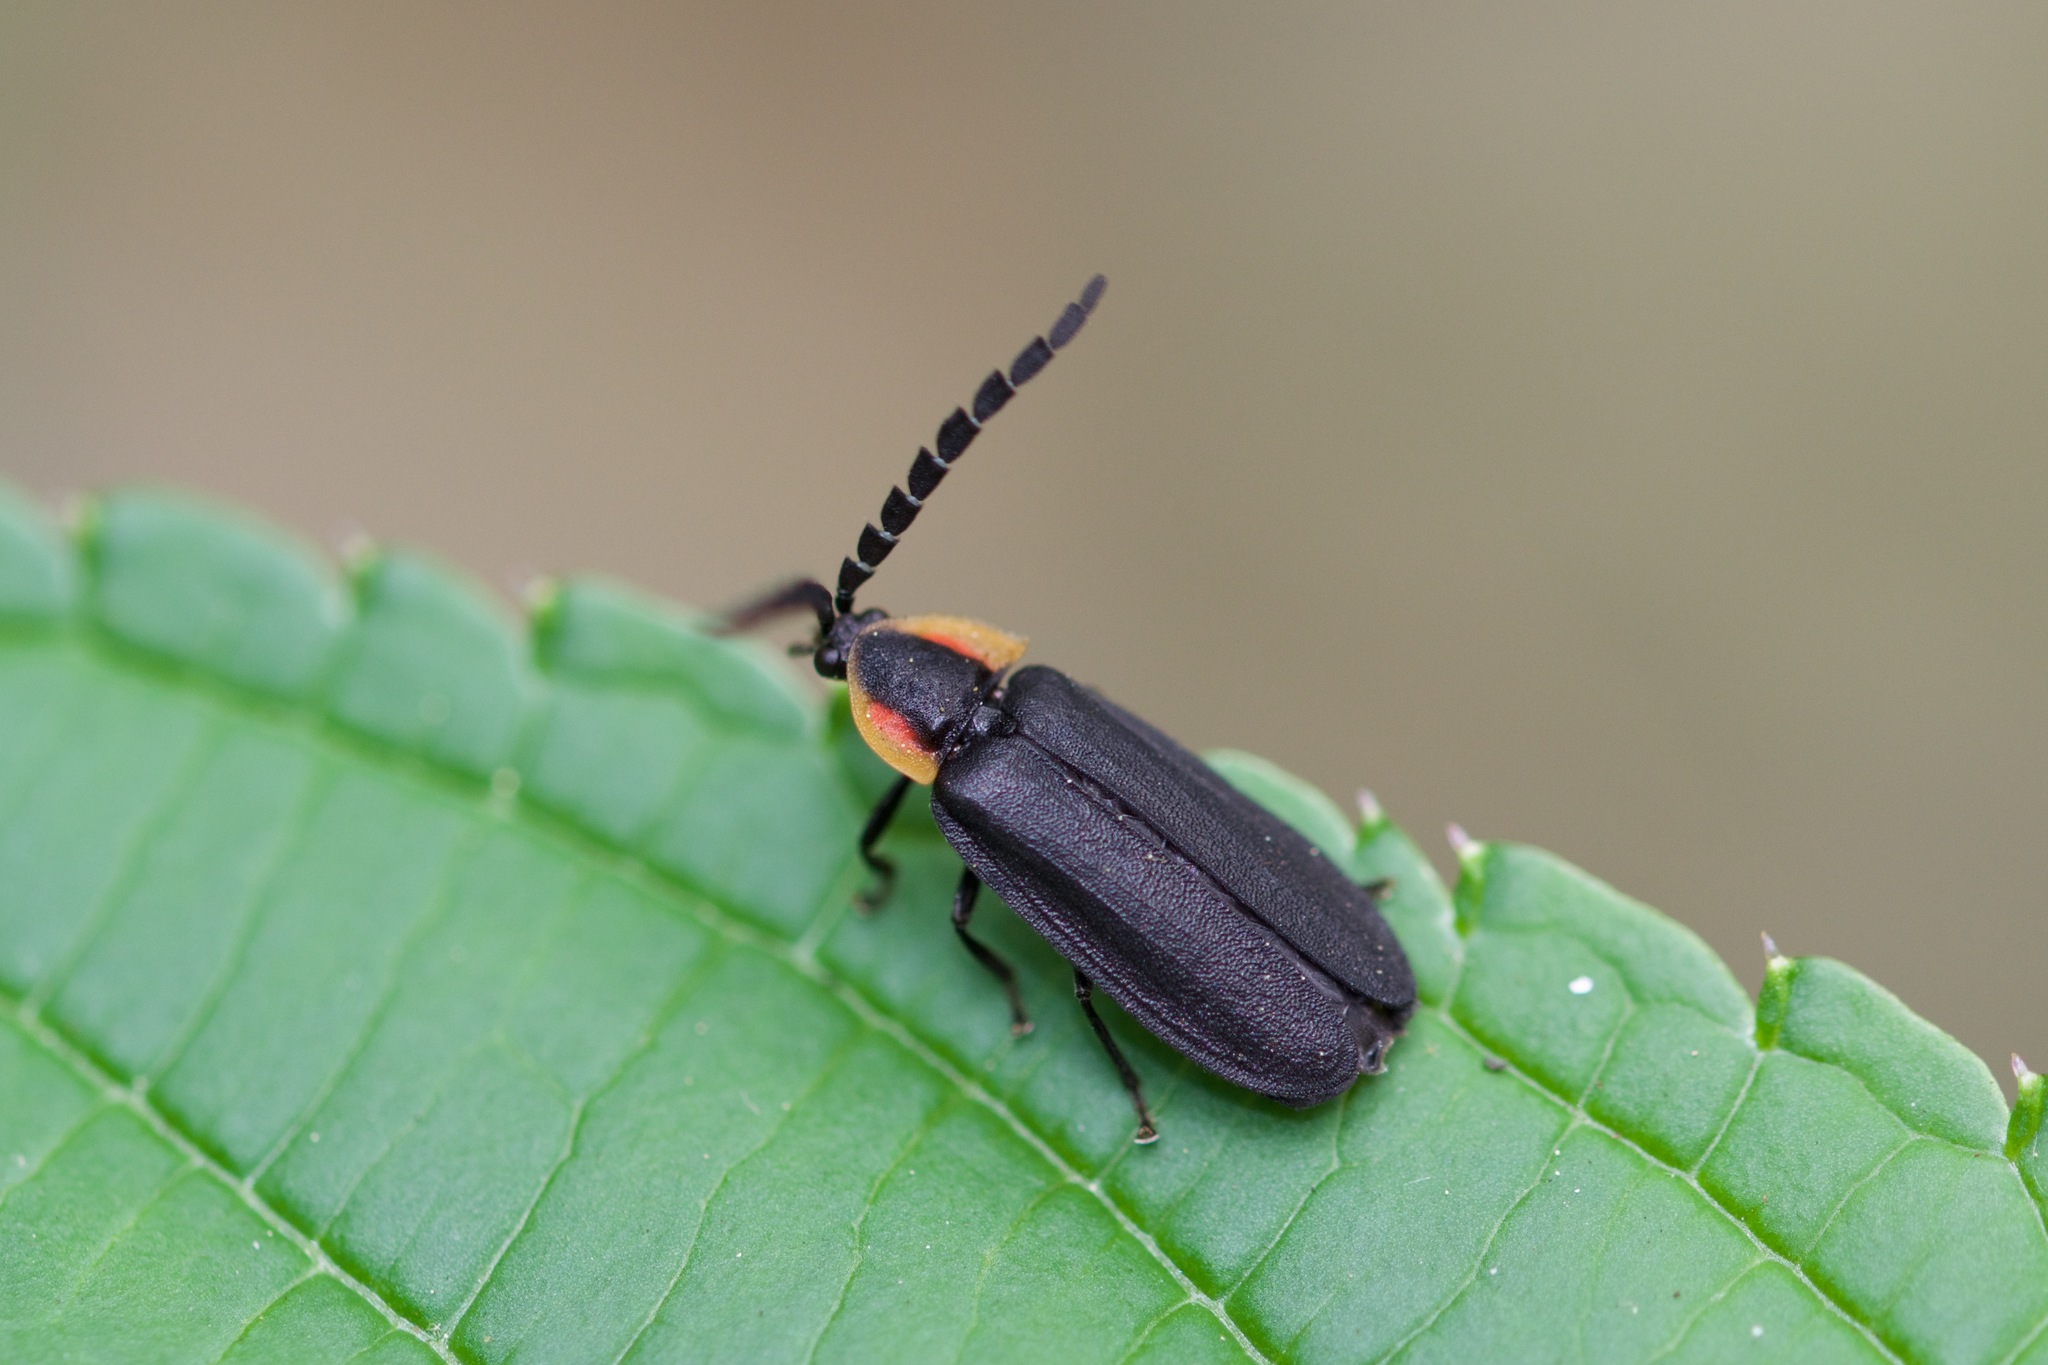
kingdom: Animalia
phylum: Arthropoda
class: Insecta
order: Coleoptera
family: Lampyridae
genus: Lucidota
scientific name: Lucidota atra
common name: Black firefly
